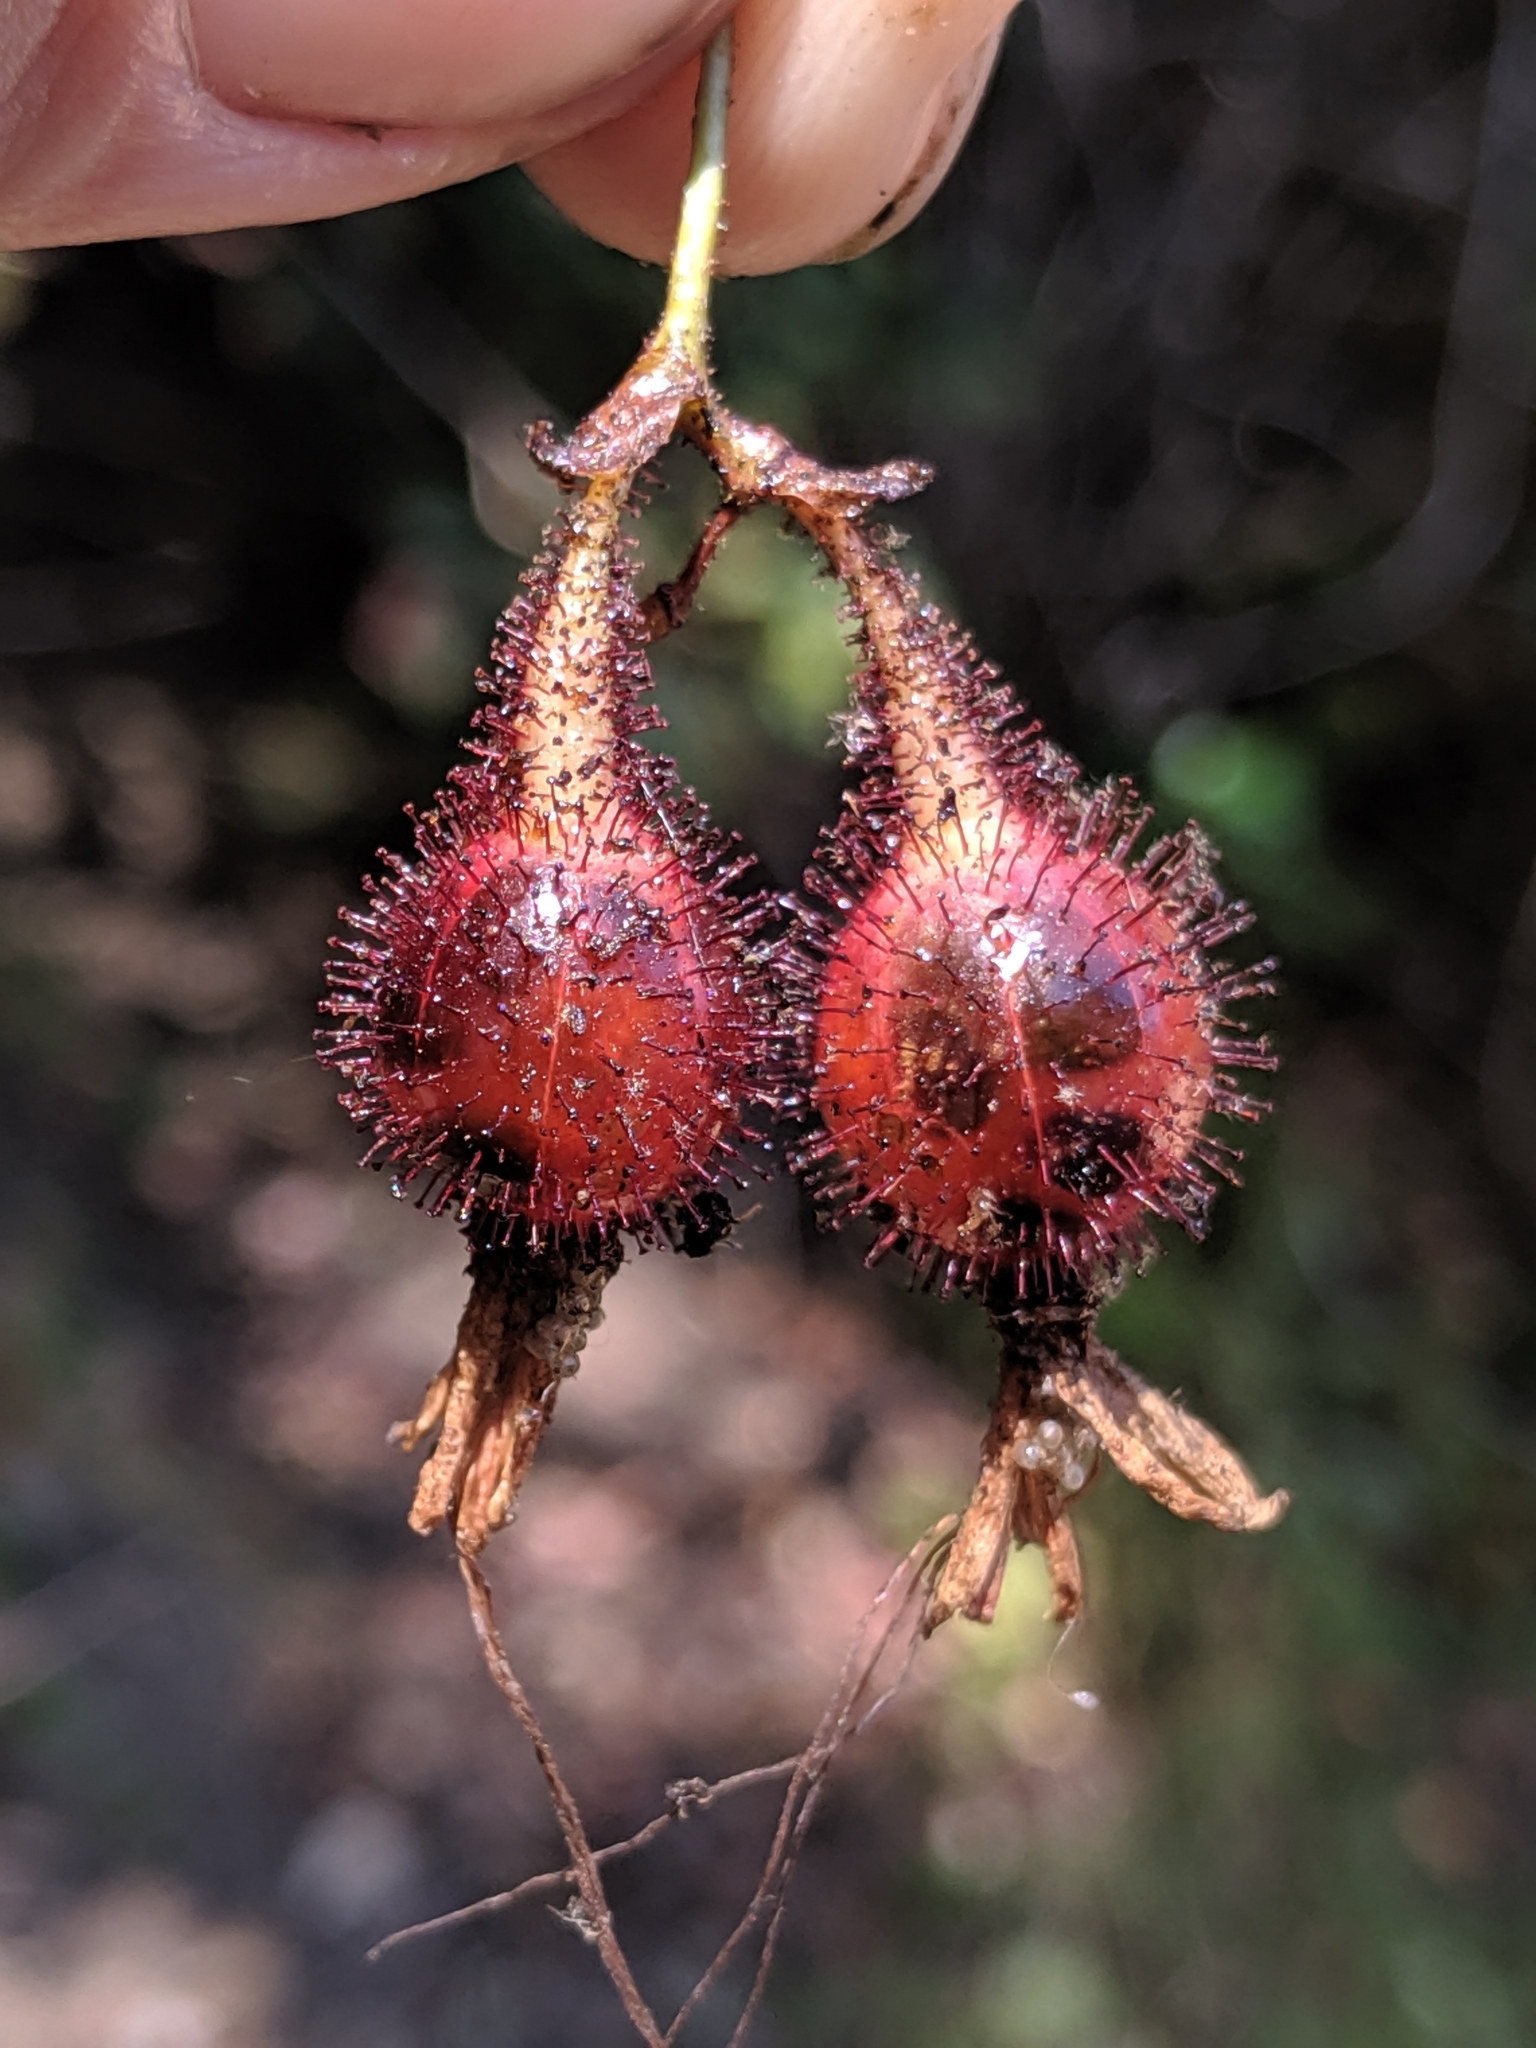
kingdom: Plantae
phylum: Tracheophyta
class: Magnoliopsida
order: Saxifragales
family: Grossulariaceae
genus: Ribes
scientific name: Ribes speciosum
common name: Fuchsia-flower gooseberry
